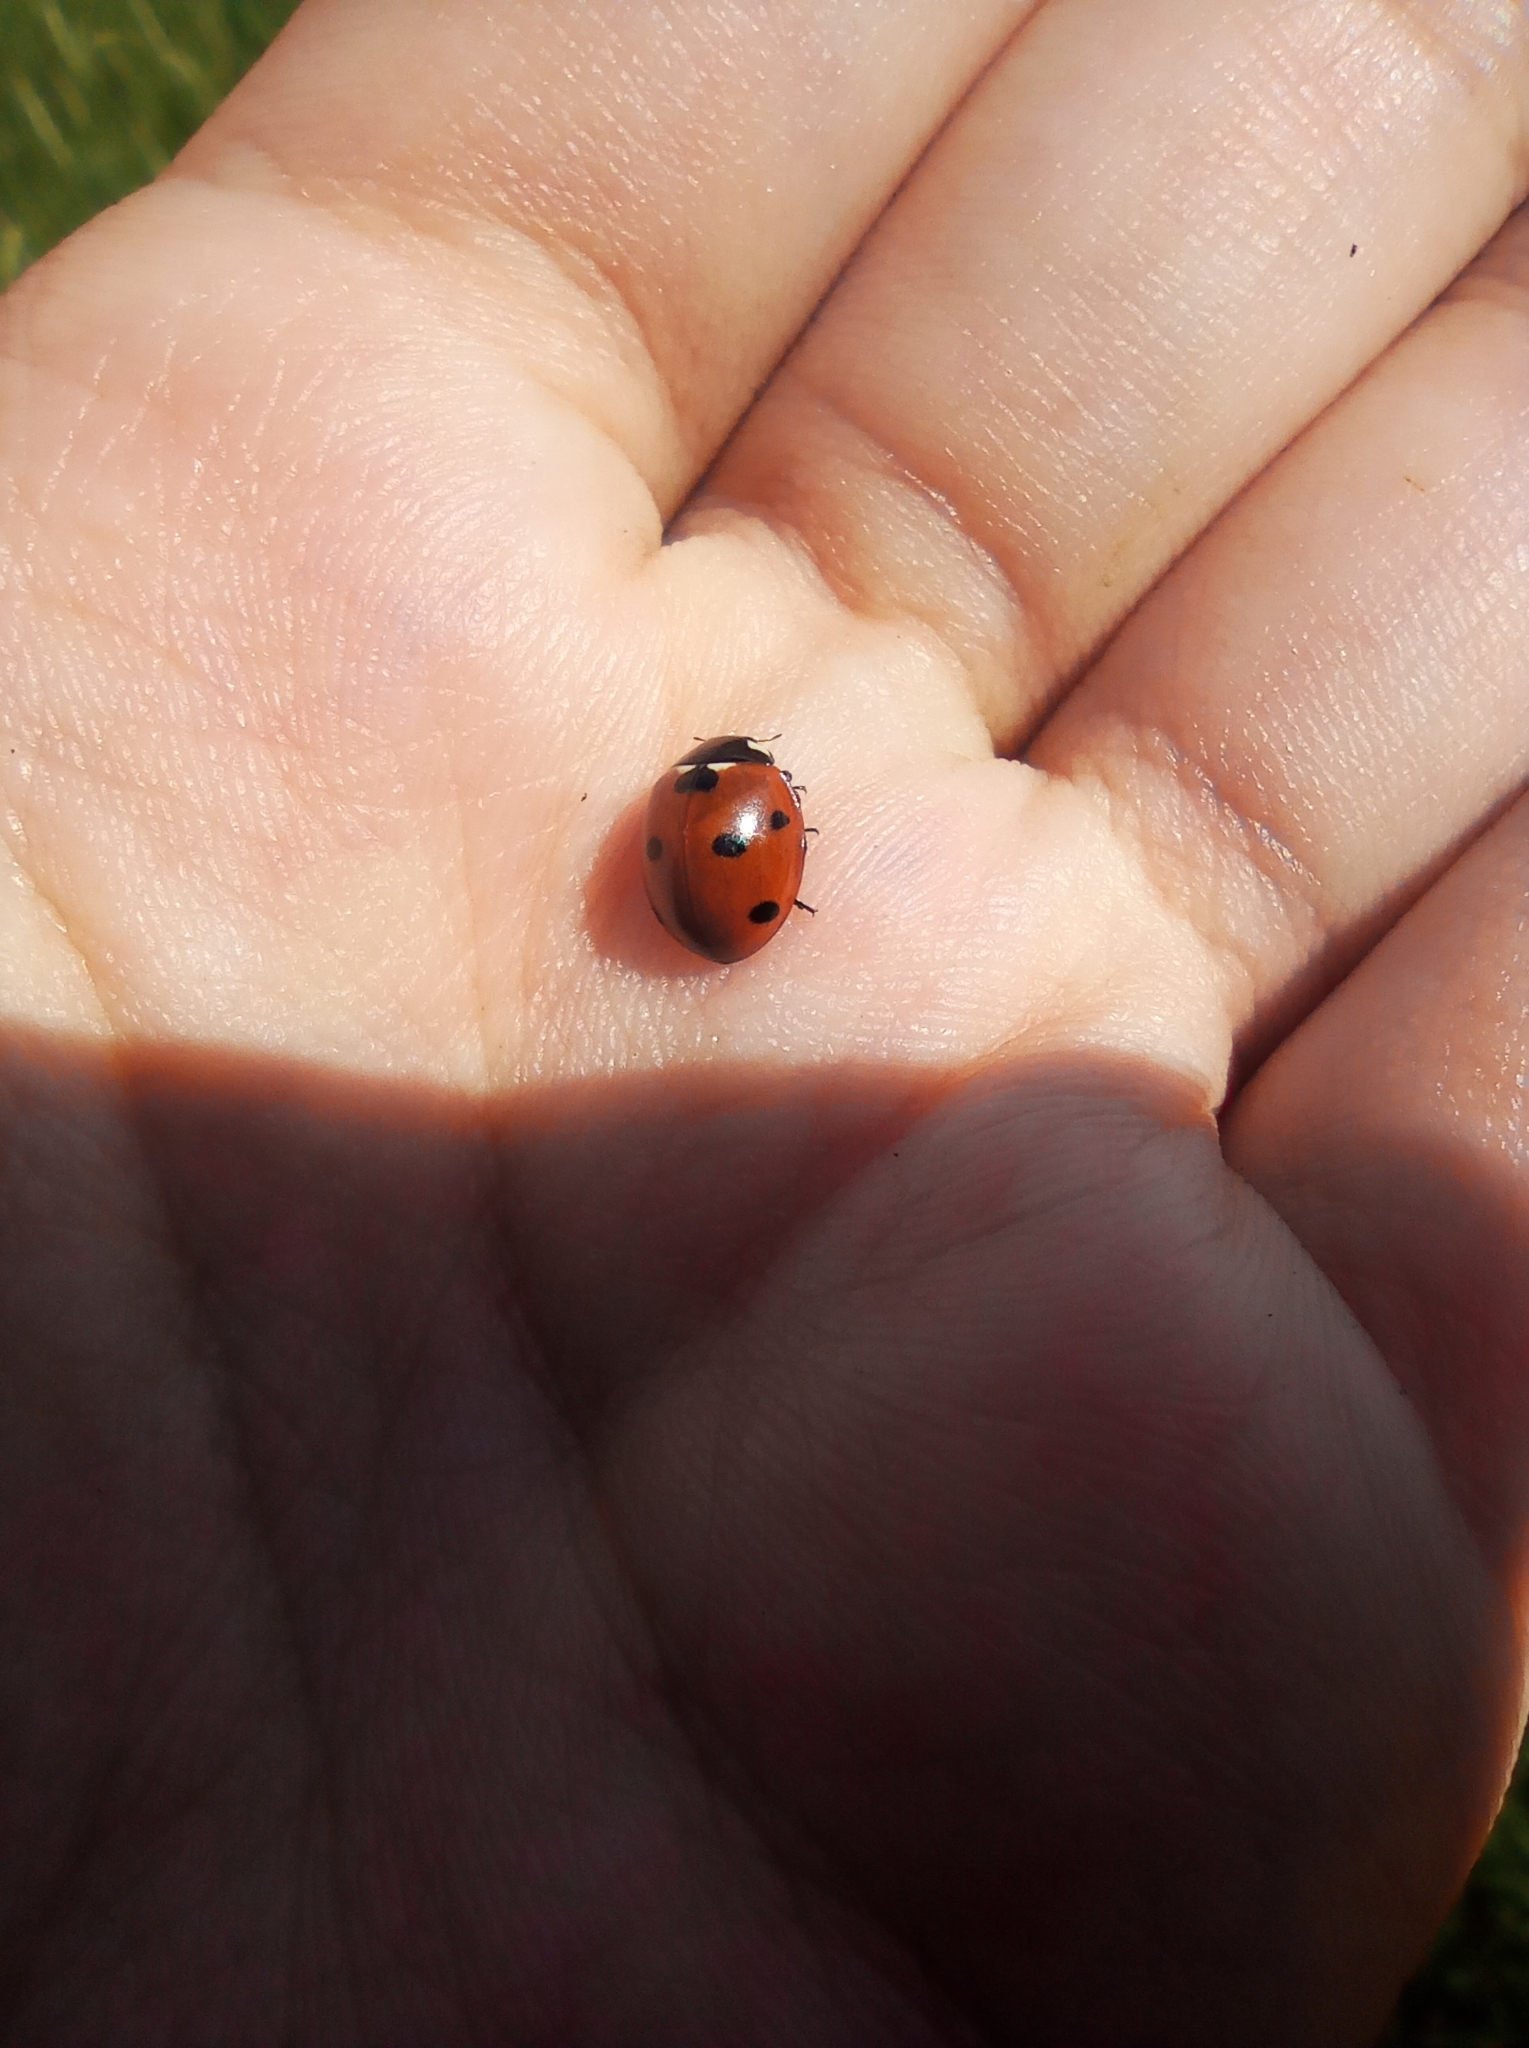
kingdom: Animalia
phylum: Arthropoda
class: Insecta
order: Coleoptera
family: Coccinellidae
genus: Coccinella
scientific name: Coccinella septempunctata
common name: Sevenspotted lady beetle
